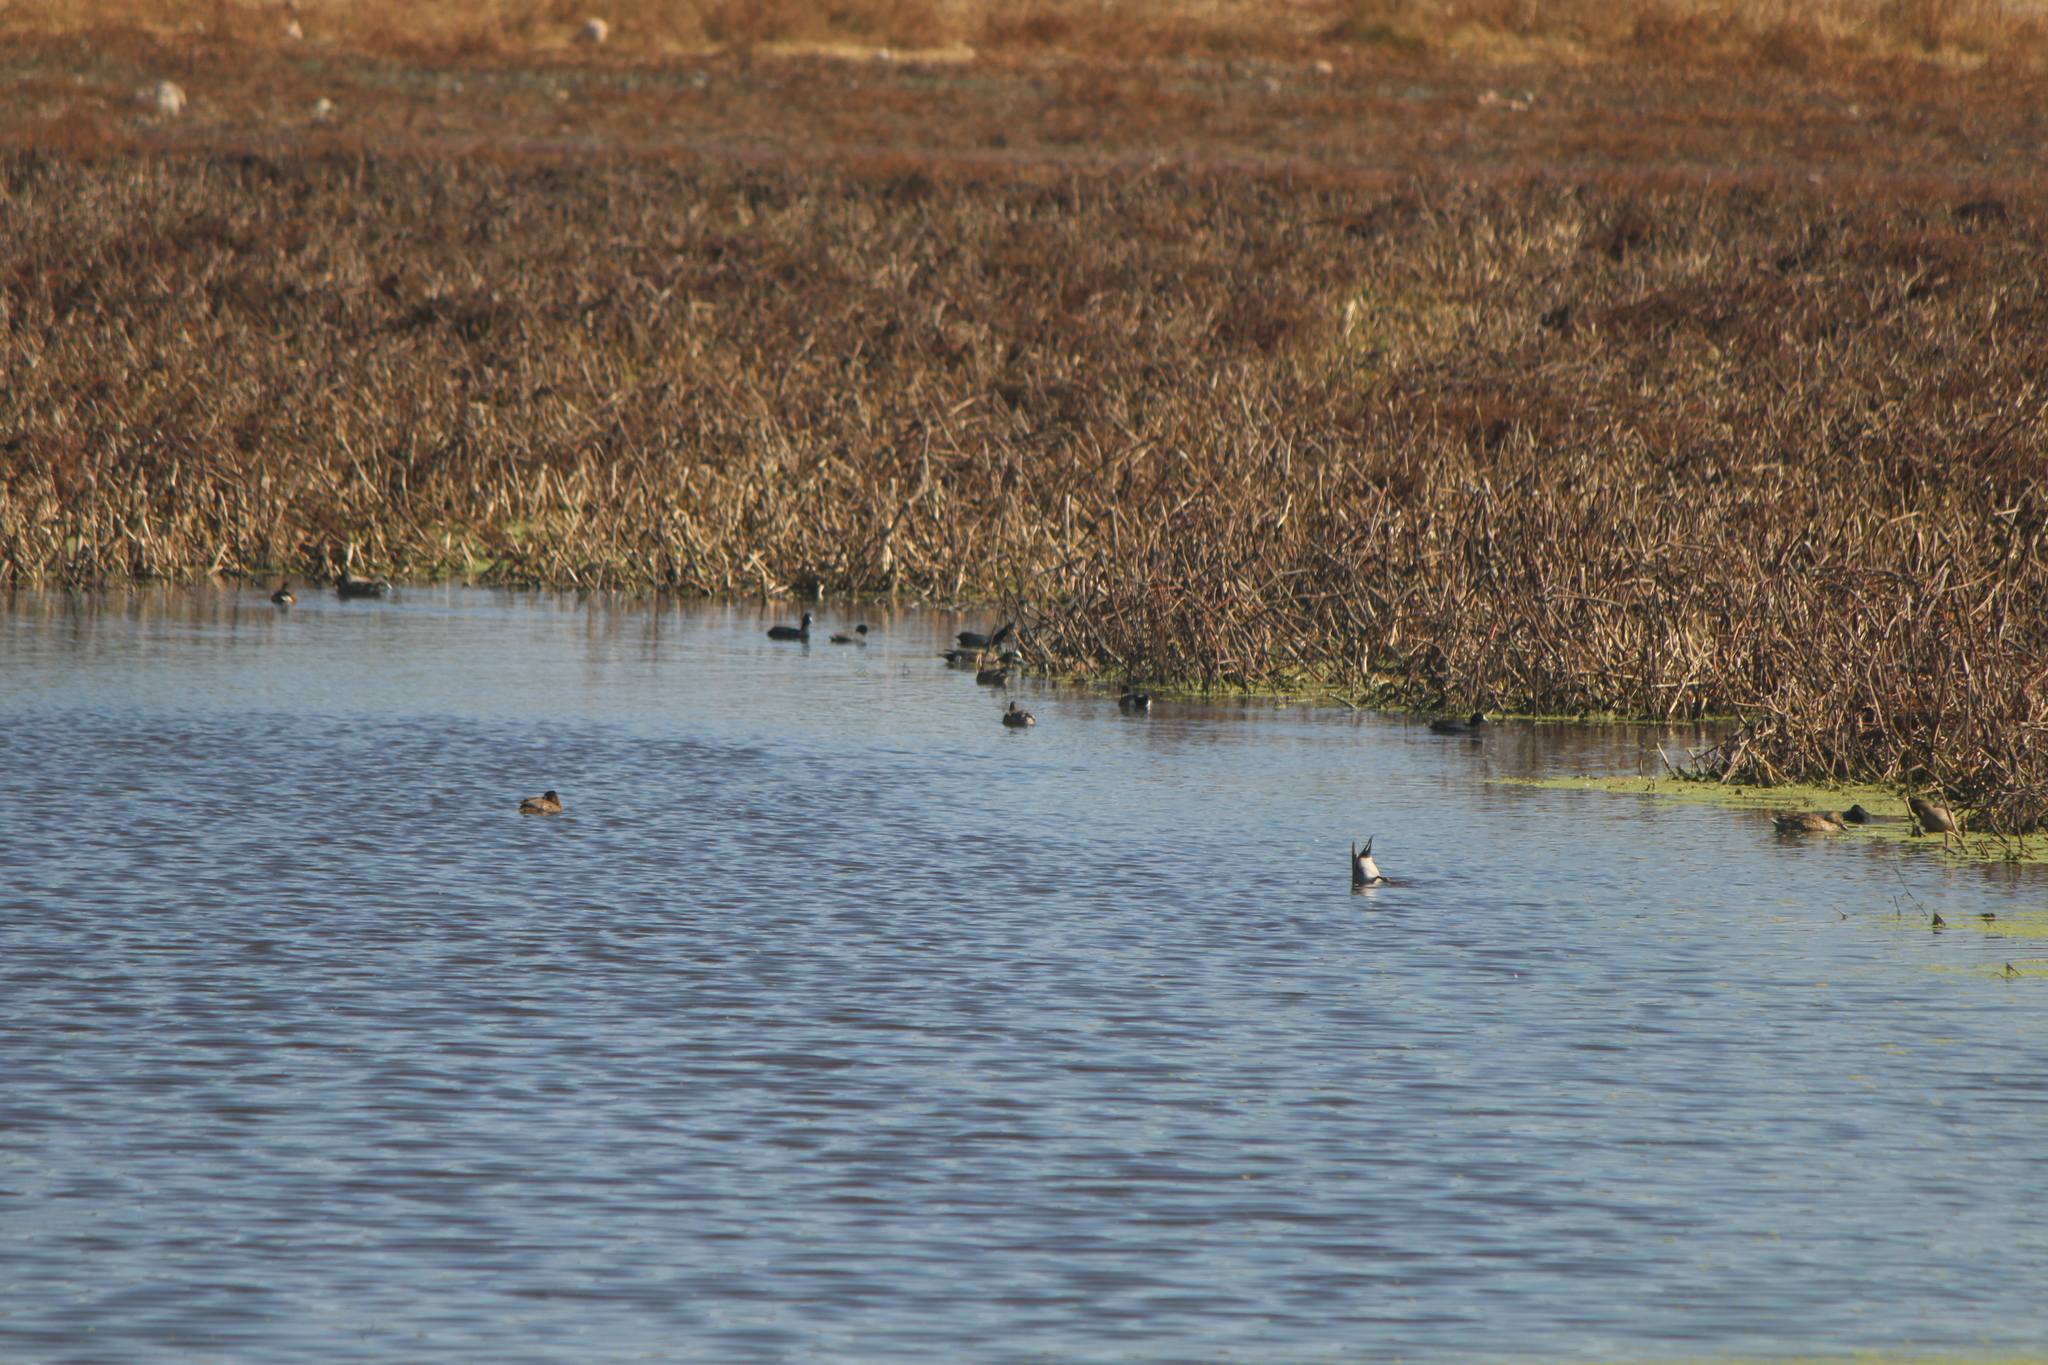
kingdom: Animalia
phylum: Chordata
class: Aves
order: Anseriformes
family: Anatidae
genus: Anas
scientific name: Anas acuta
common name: Northern pintail
